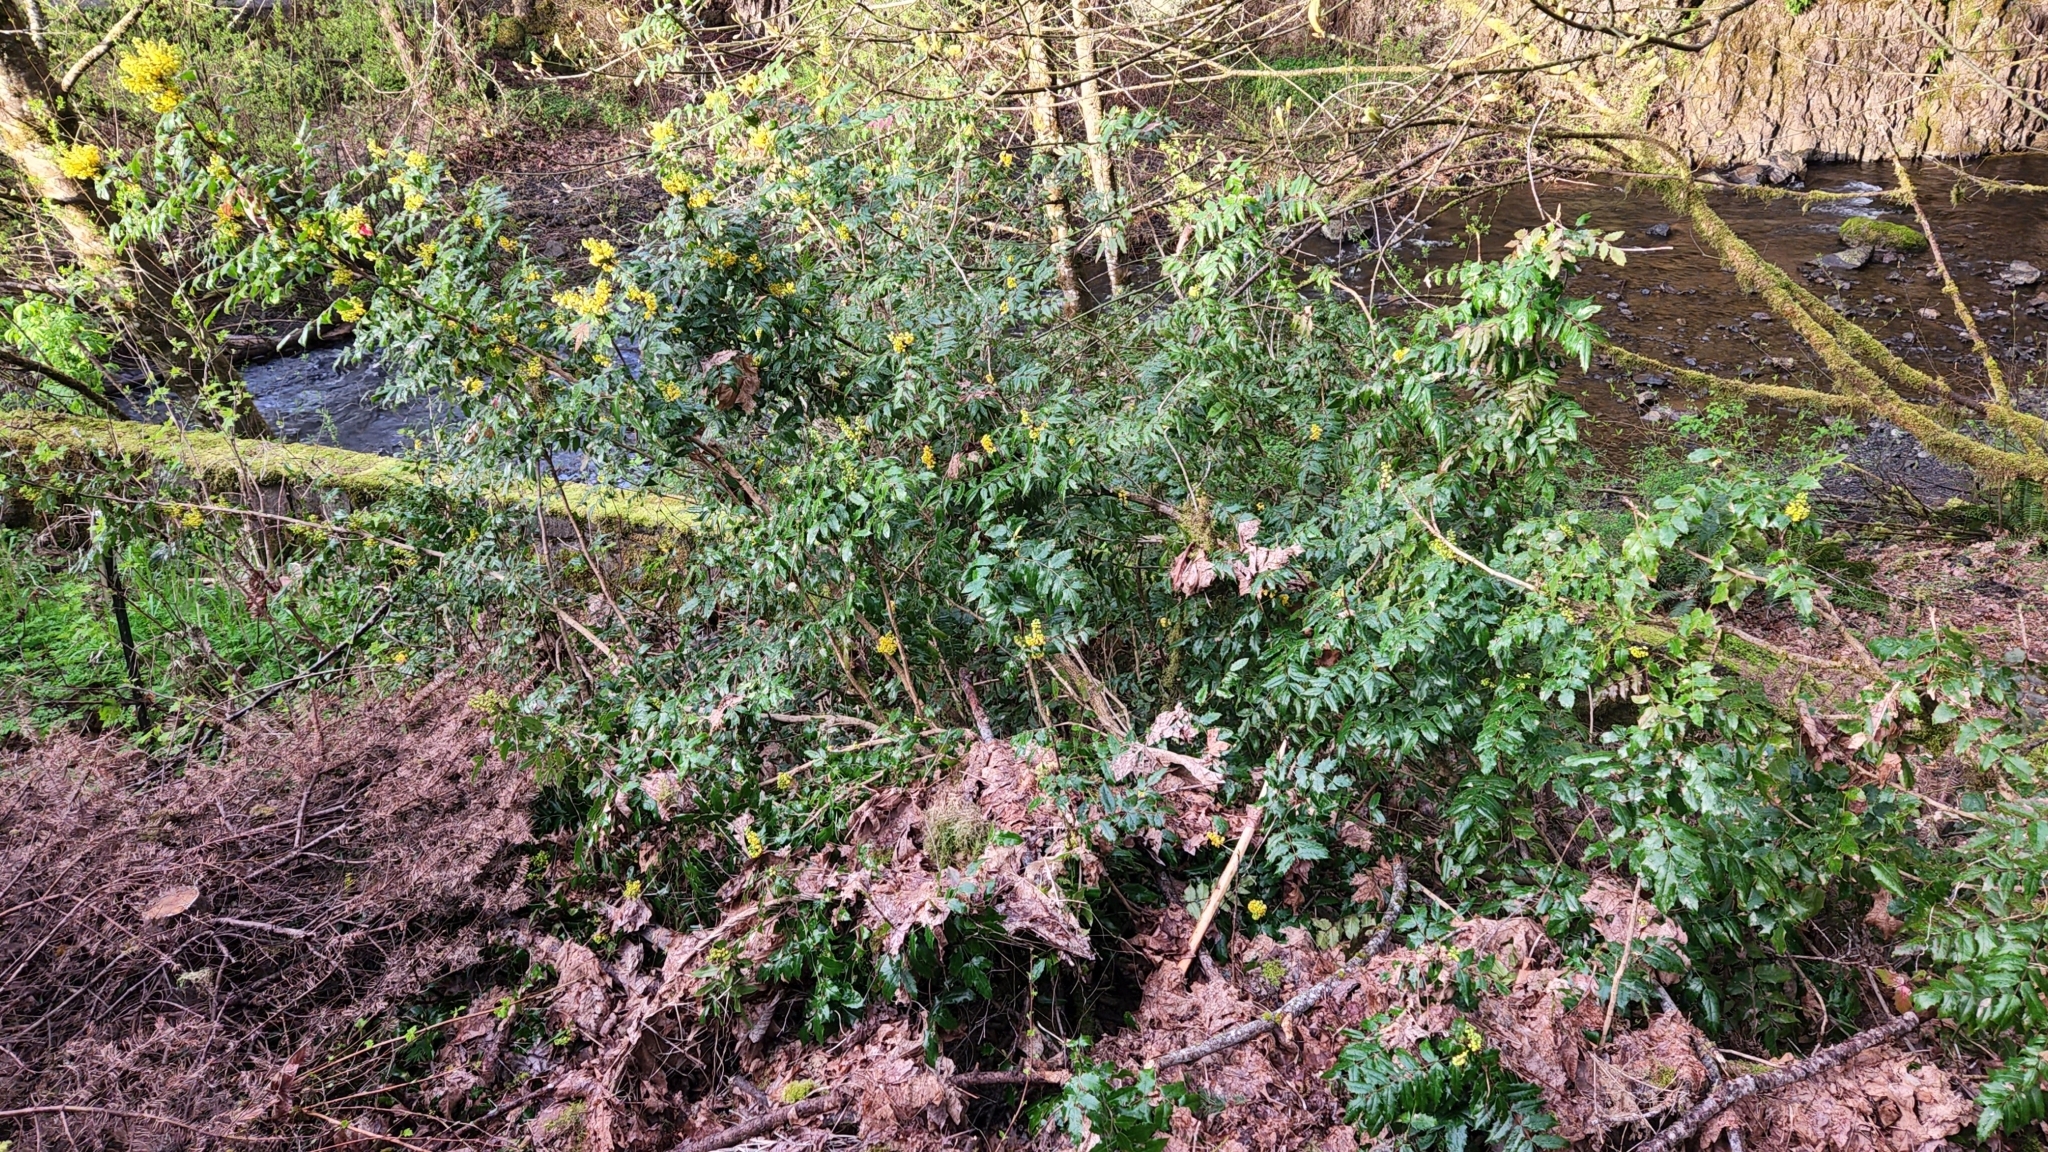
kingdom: Plantae
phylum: Tracheophyta
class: Magnoliopsida
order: Ranunculales
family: Berberidaceae
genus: Mahonia
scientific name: Mahonia aquifolium
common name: Oregon-grape
